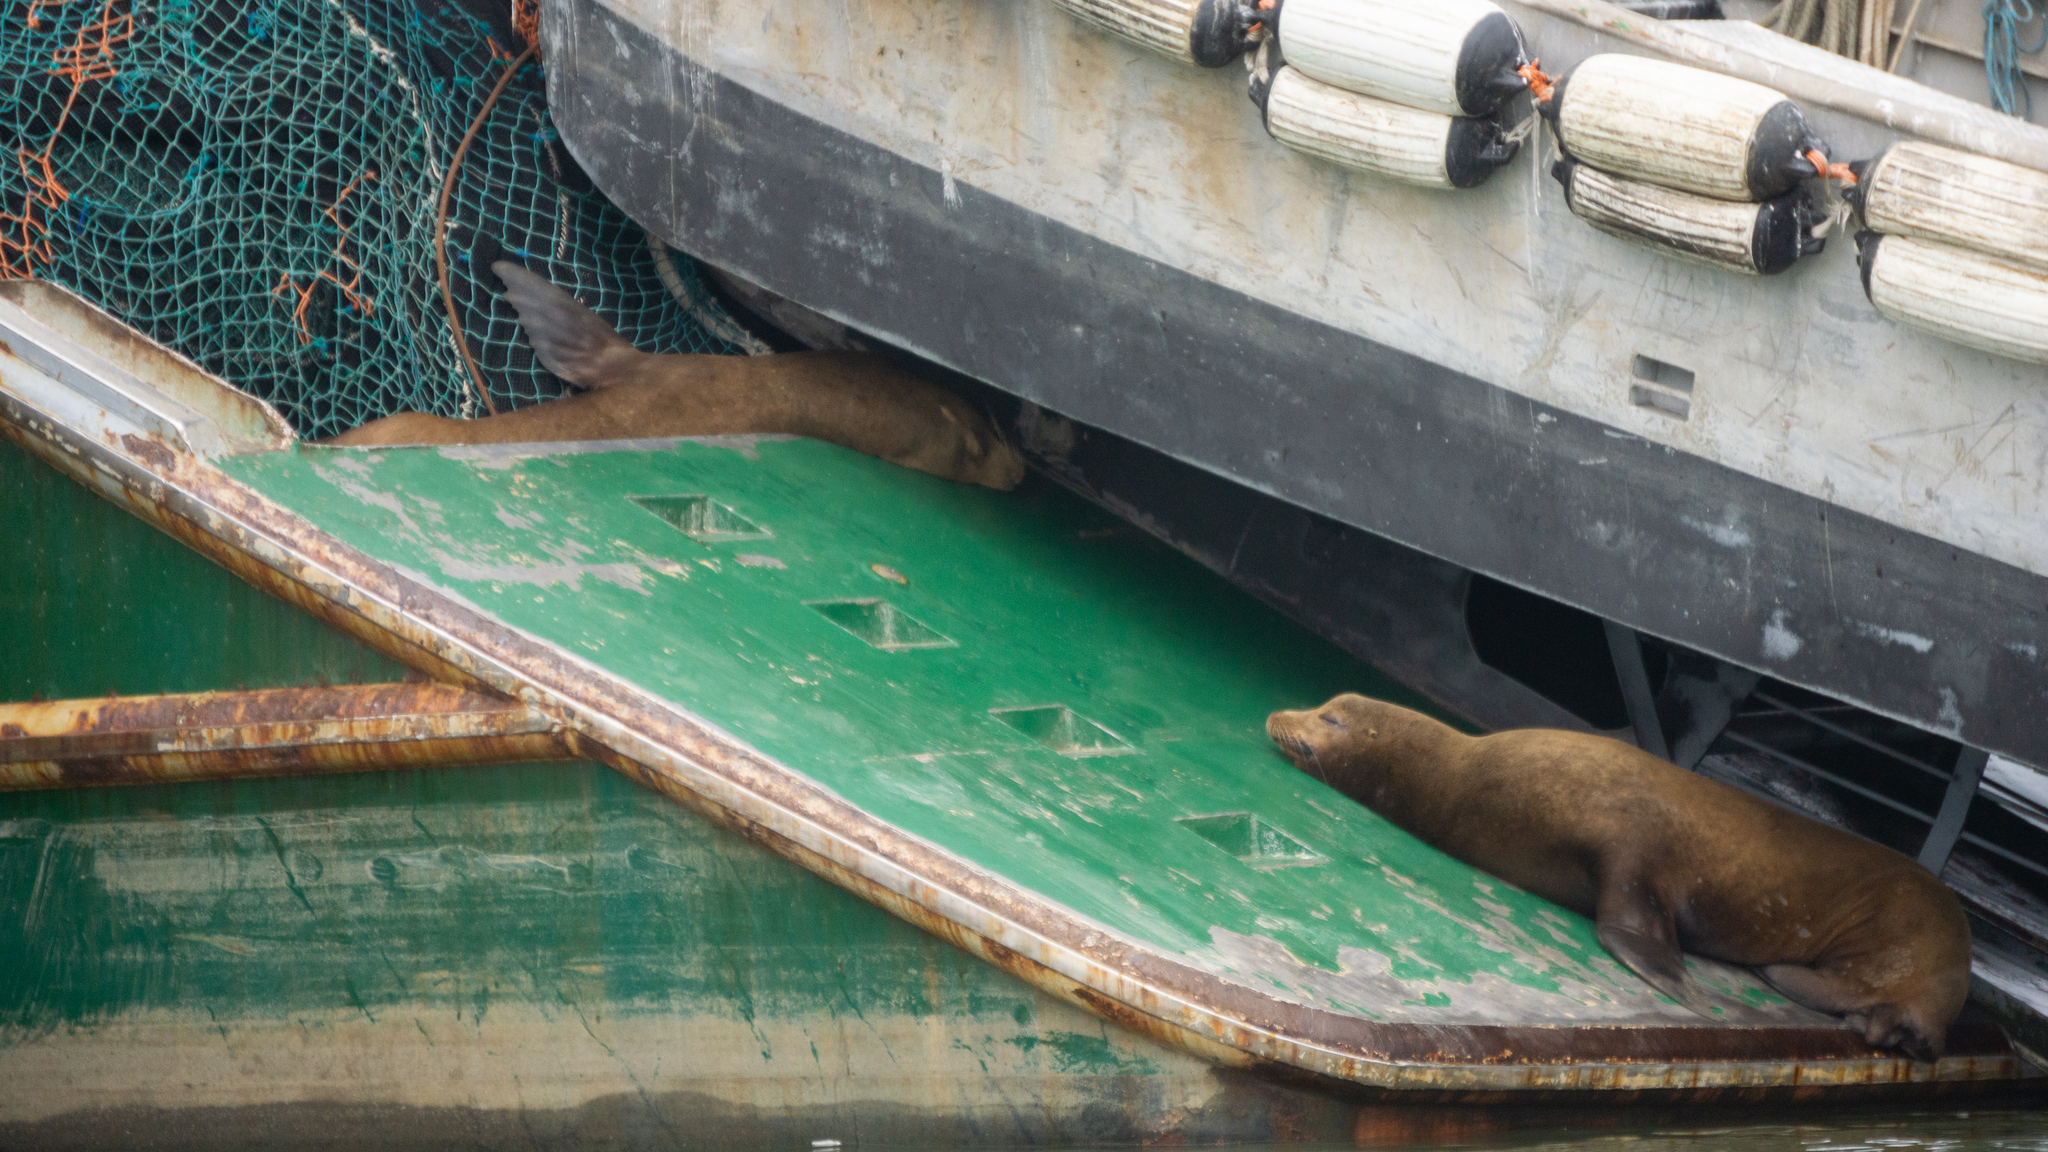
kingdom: Animalia
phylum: Chordata
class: Mammalia
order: Carnivora
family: Otariidae
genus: Zalophus
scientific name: Zalophus californianus
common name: California sea lion
